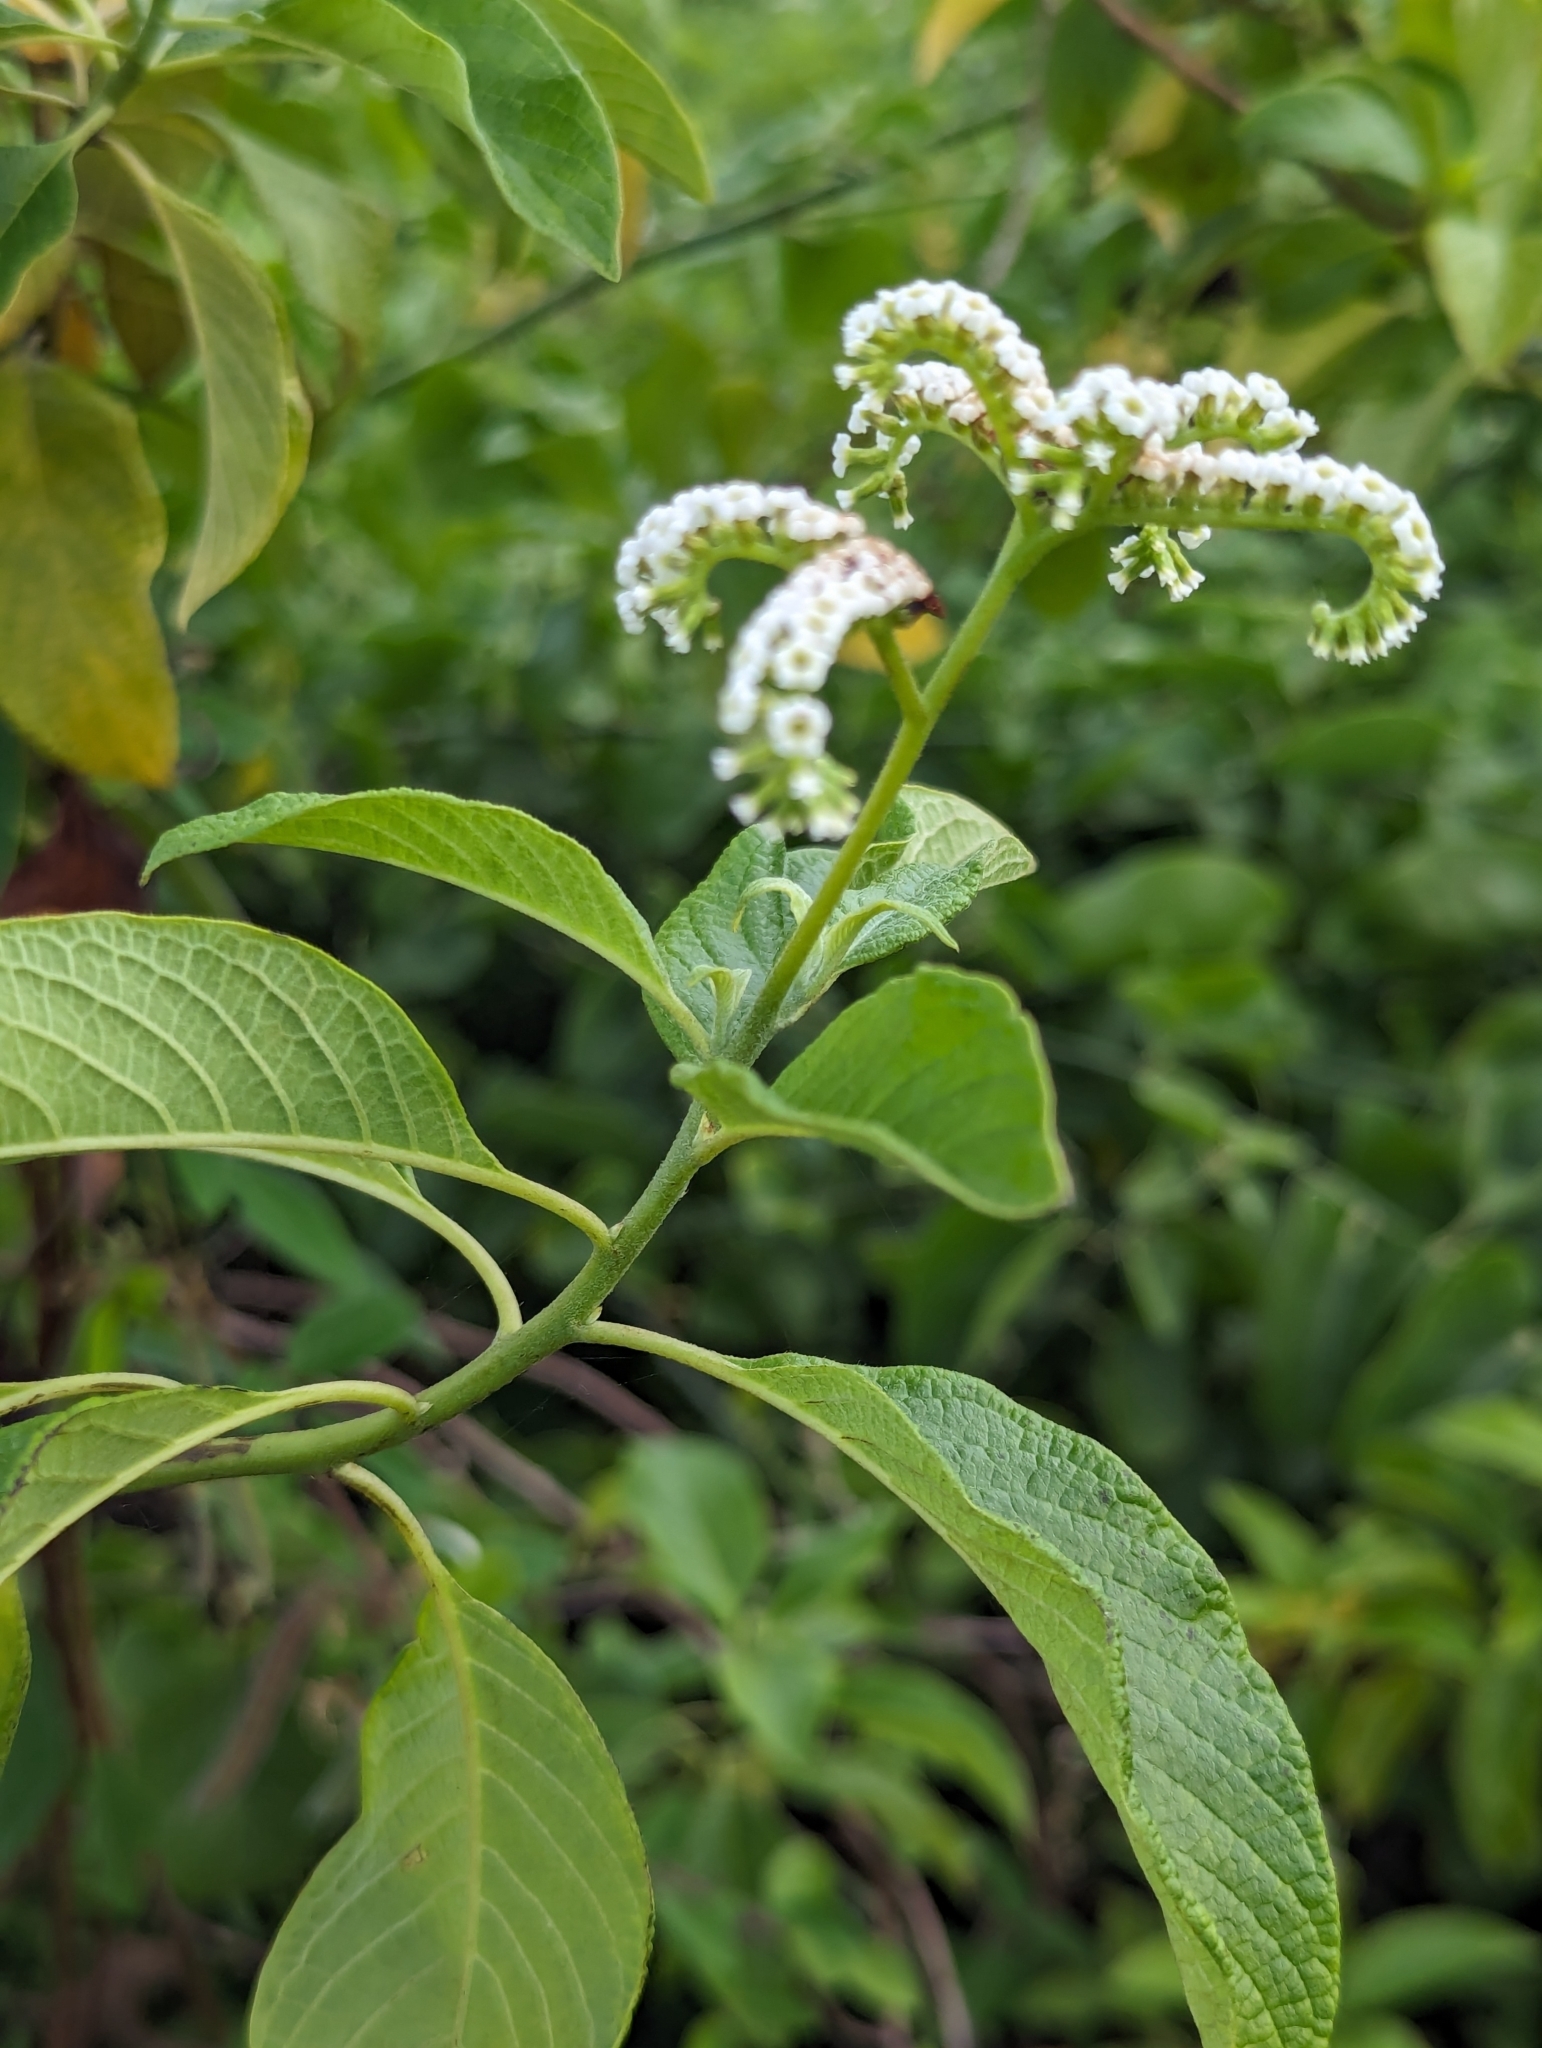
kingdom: Plantae
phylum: Tracheophyta
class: Magnoliopsida
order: Boraginales
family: Heliotropiaceae
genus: Tournefortia
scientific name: Tournefortia pubescens
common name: White-haired tournefortia
